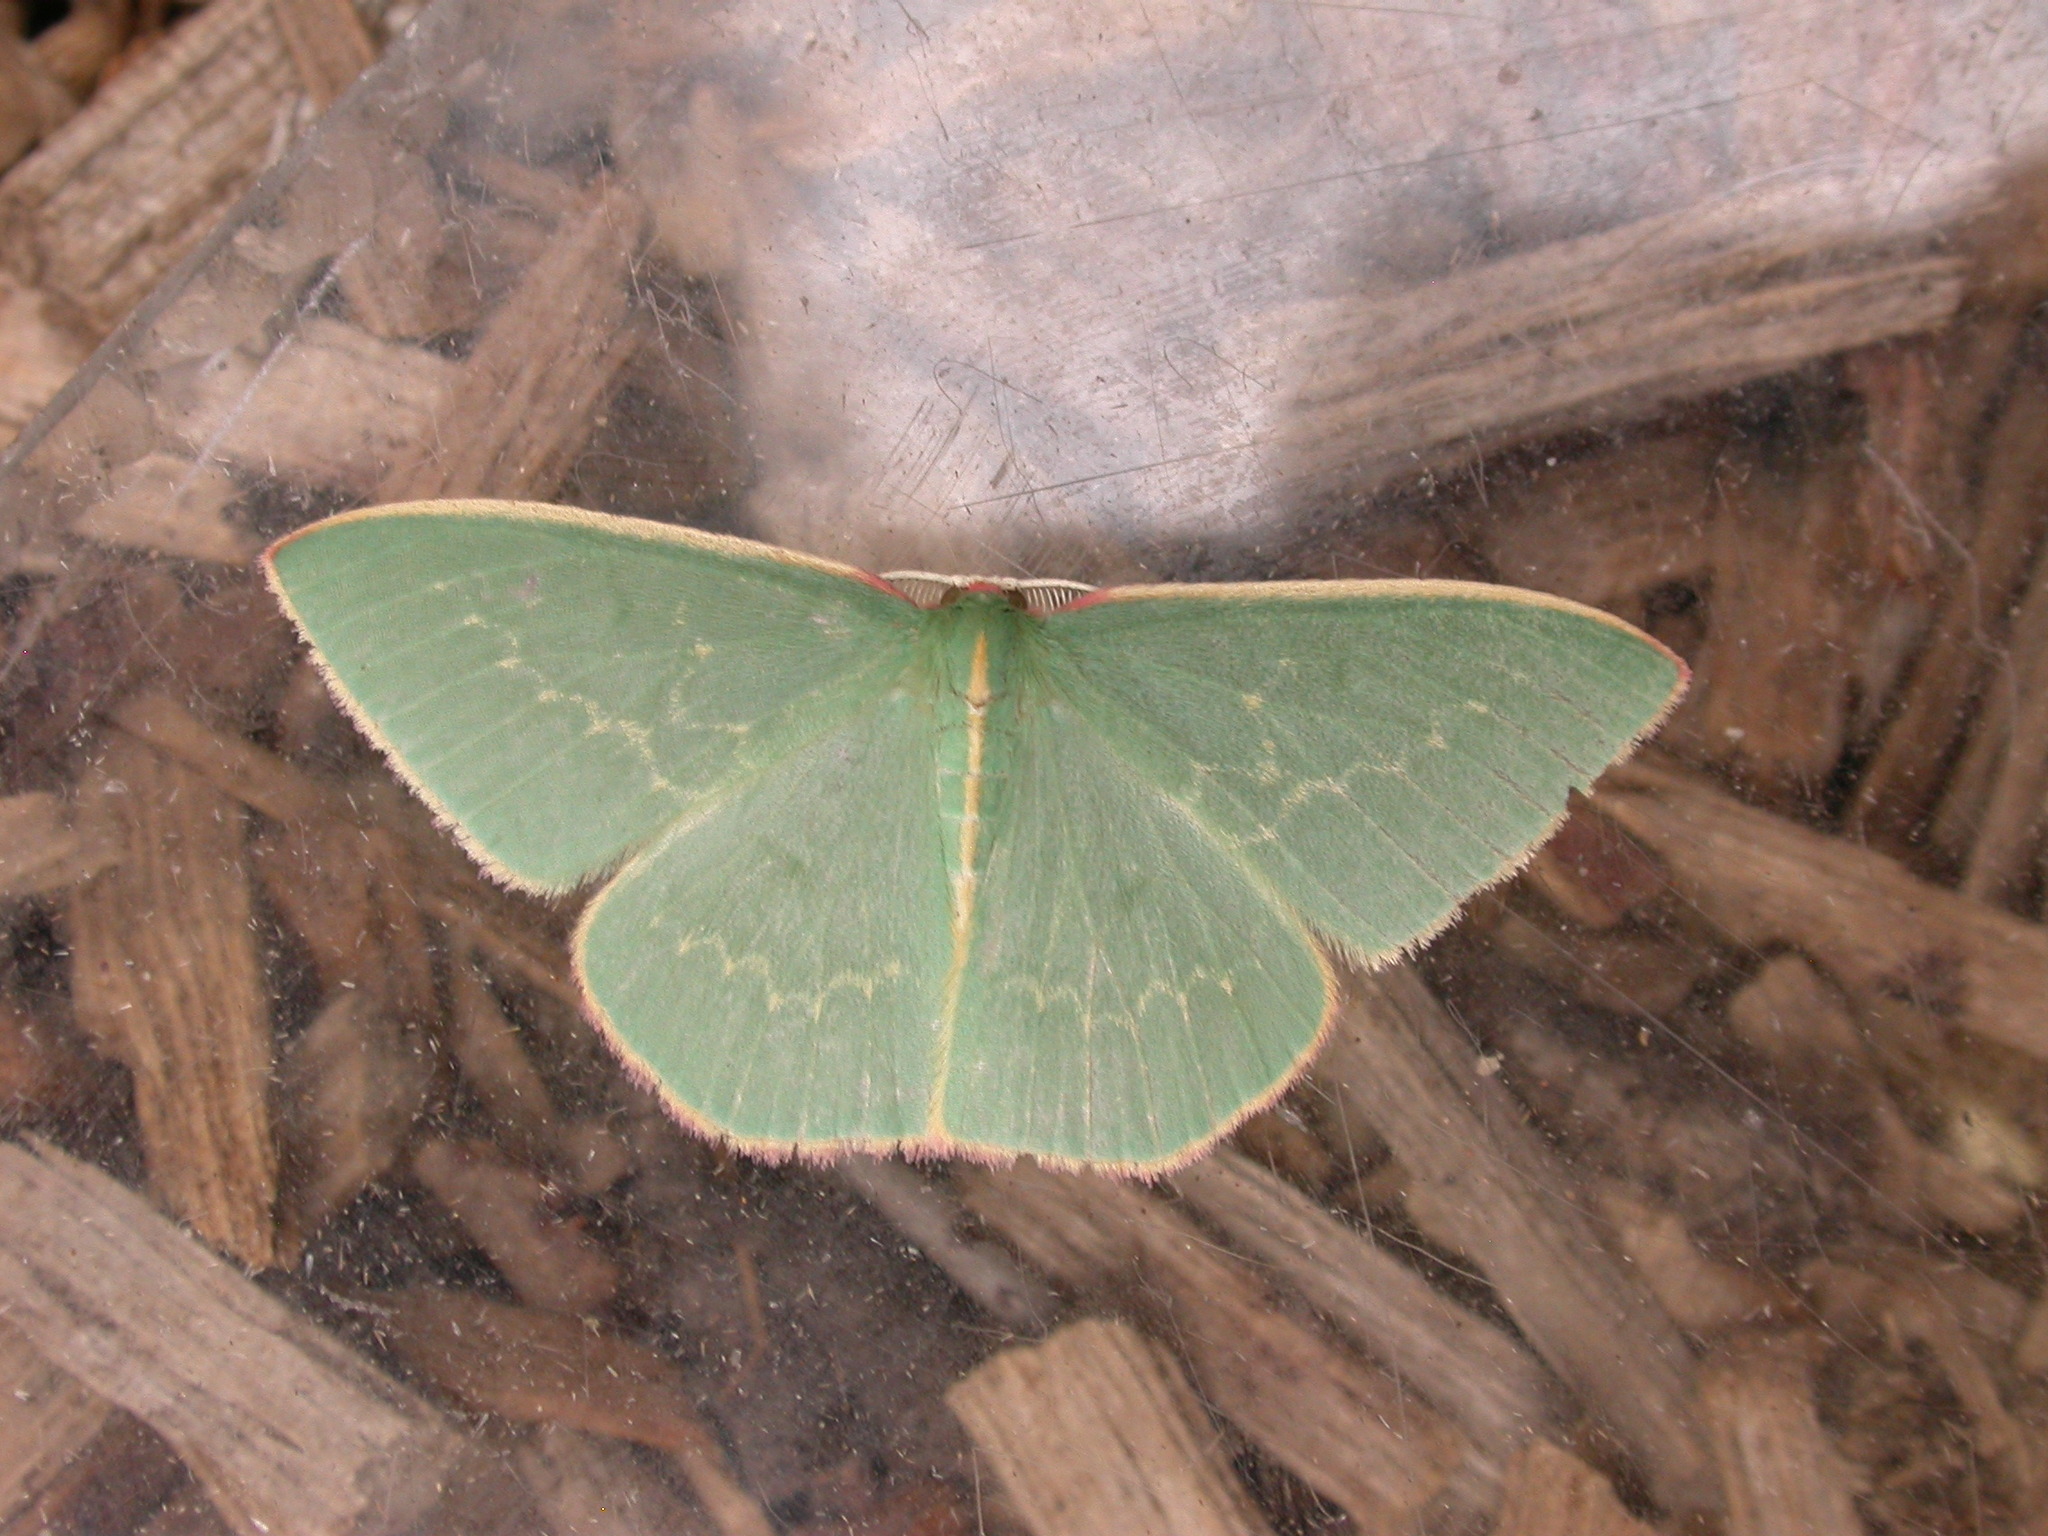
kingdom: Animalia
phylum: Arthropoda
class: Insecta
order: Lepidoptera
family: Geometridae
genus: Chlorocoma
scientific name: Chlorocoma vertumnaria
